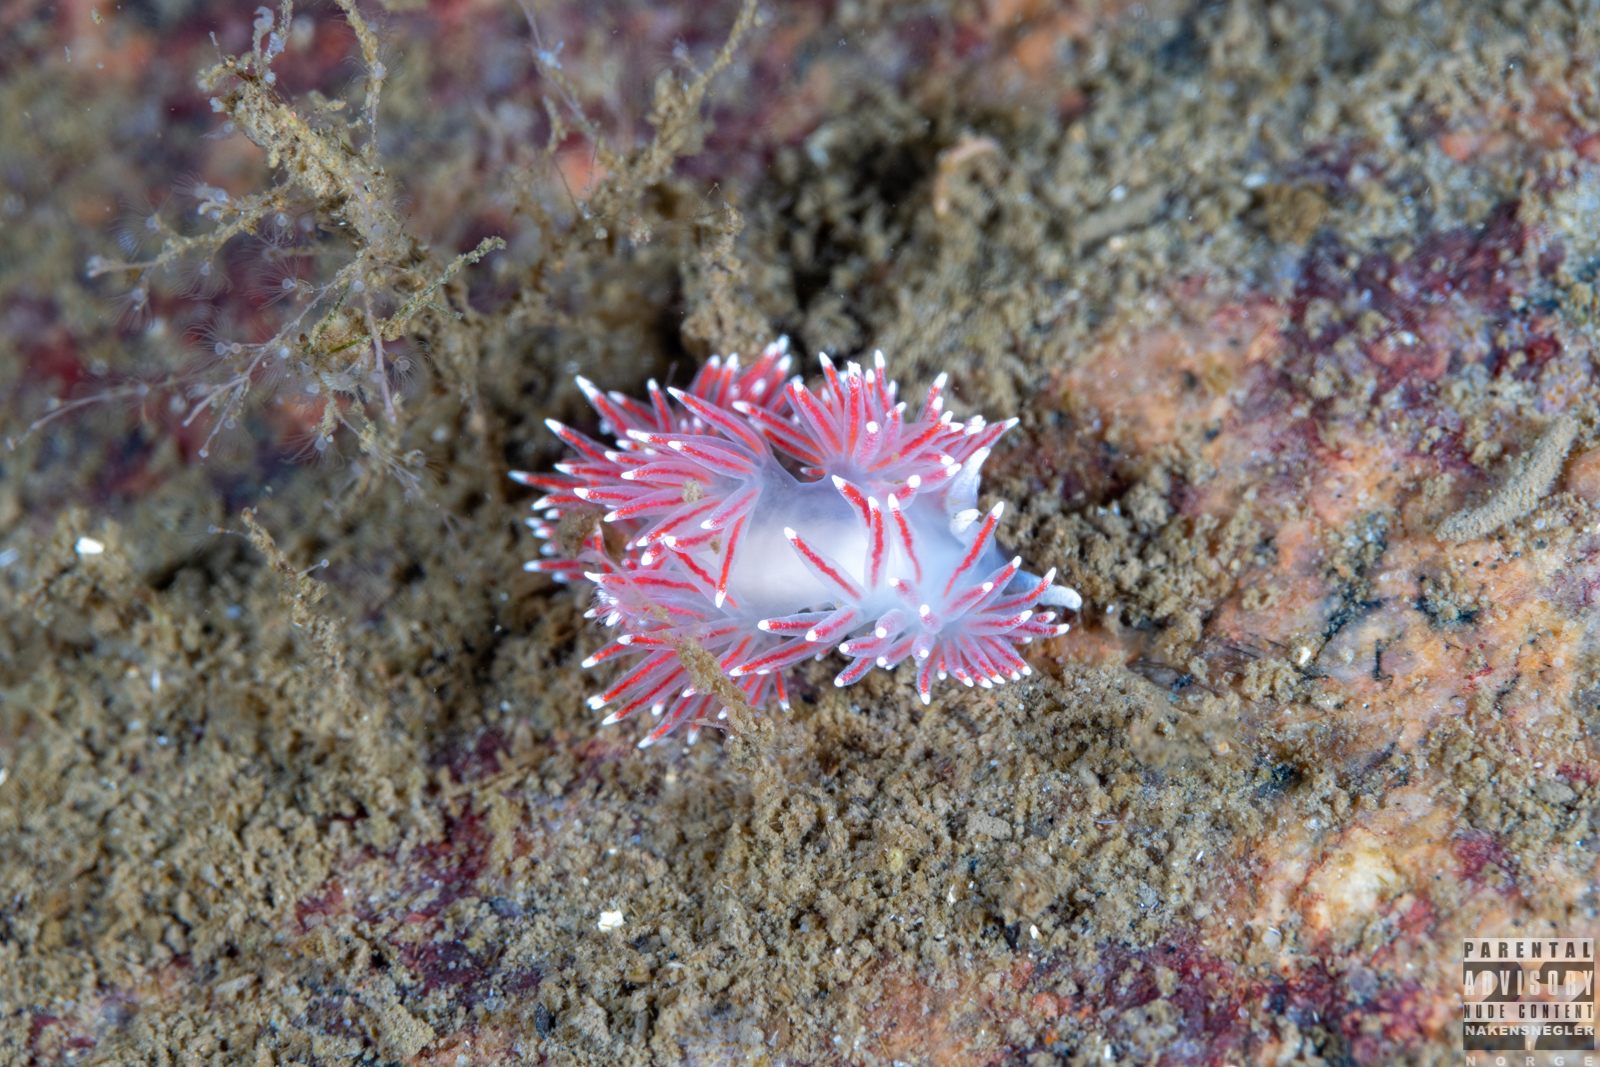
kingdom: Animalia
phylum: Mollusca
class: Gastropoda
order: Nudibranchia
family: Flabellinidae
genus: Carronella
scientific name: Carronella pellucida
